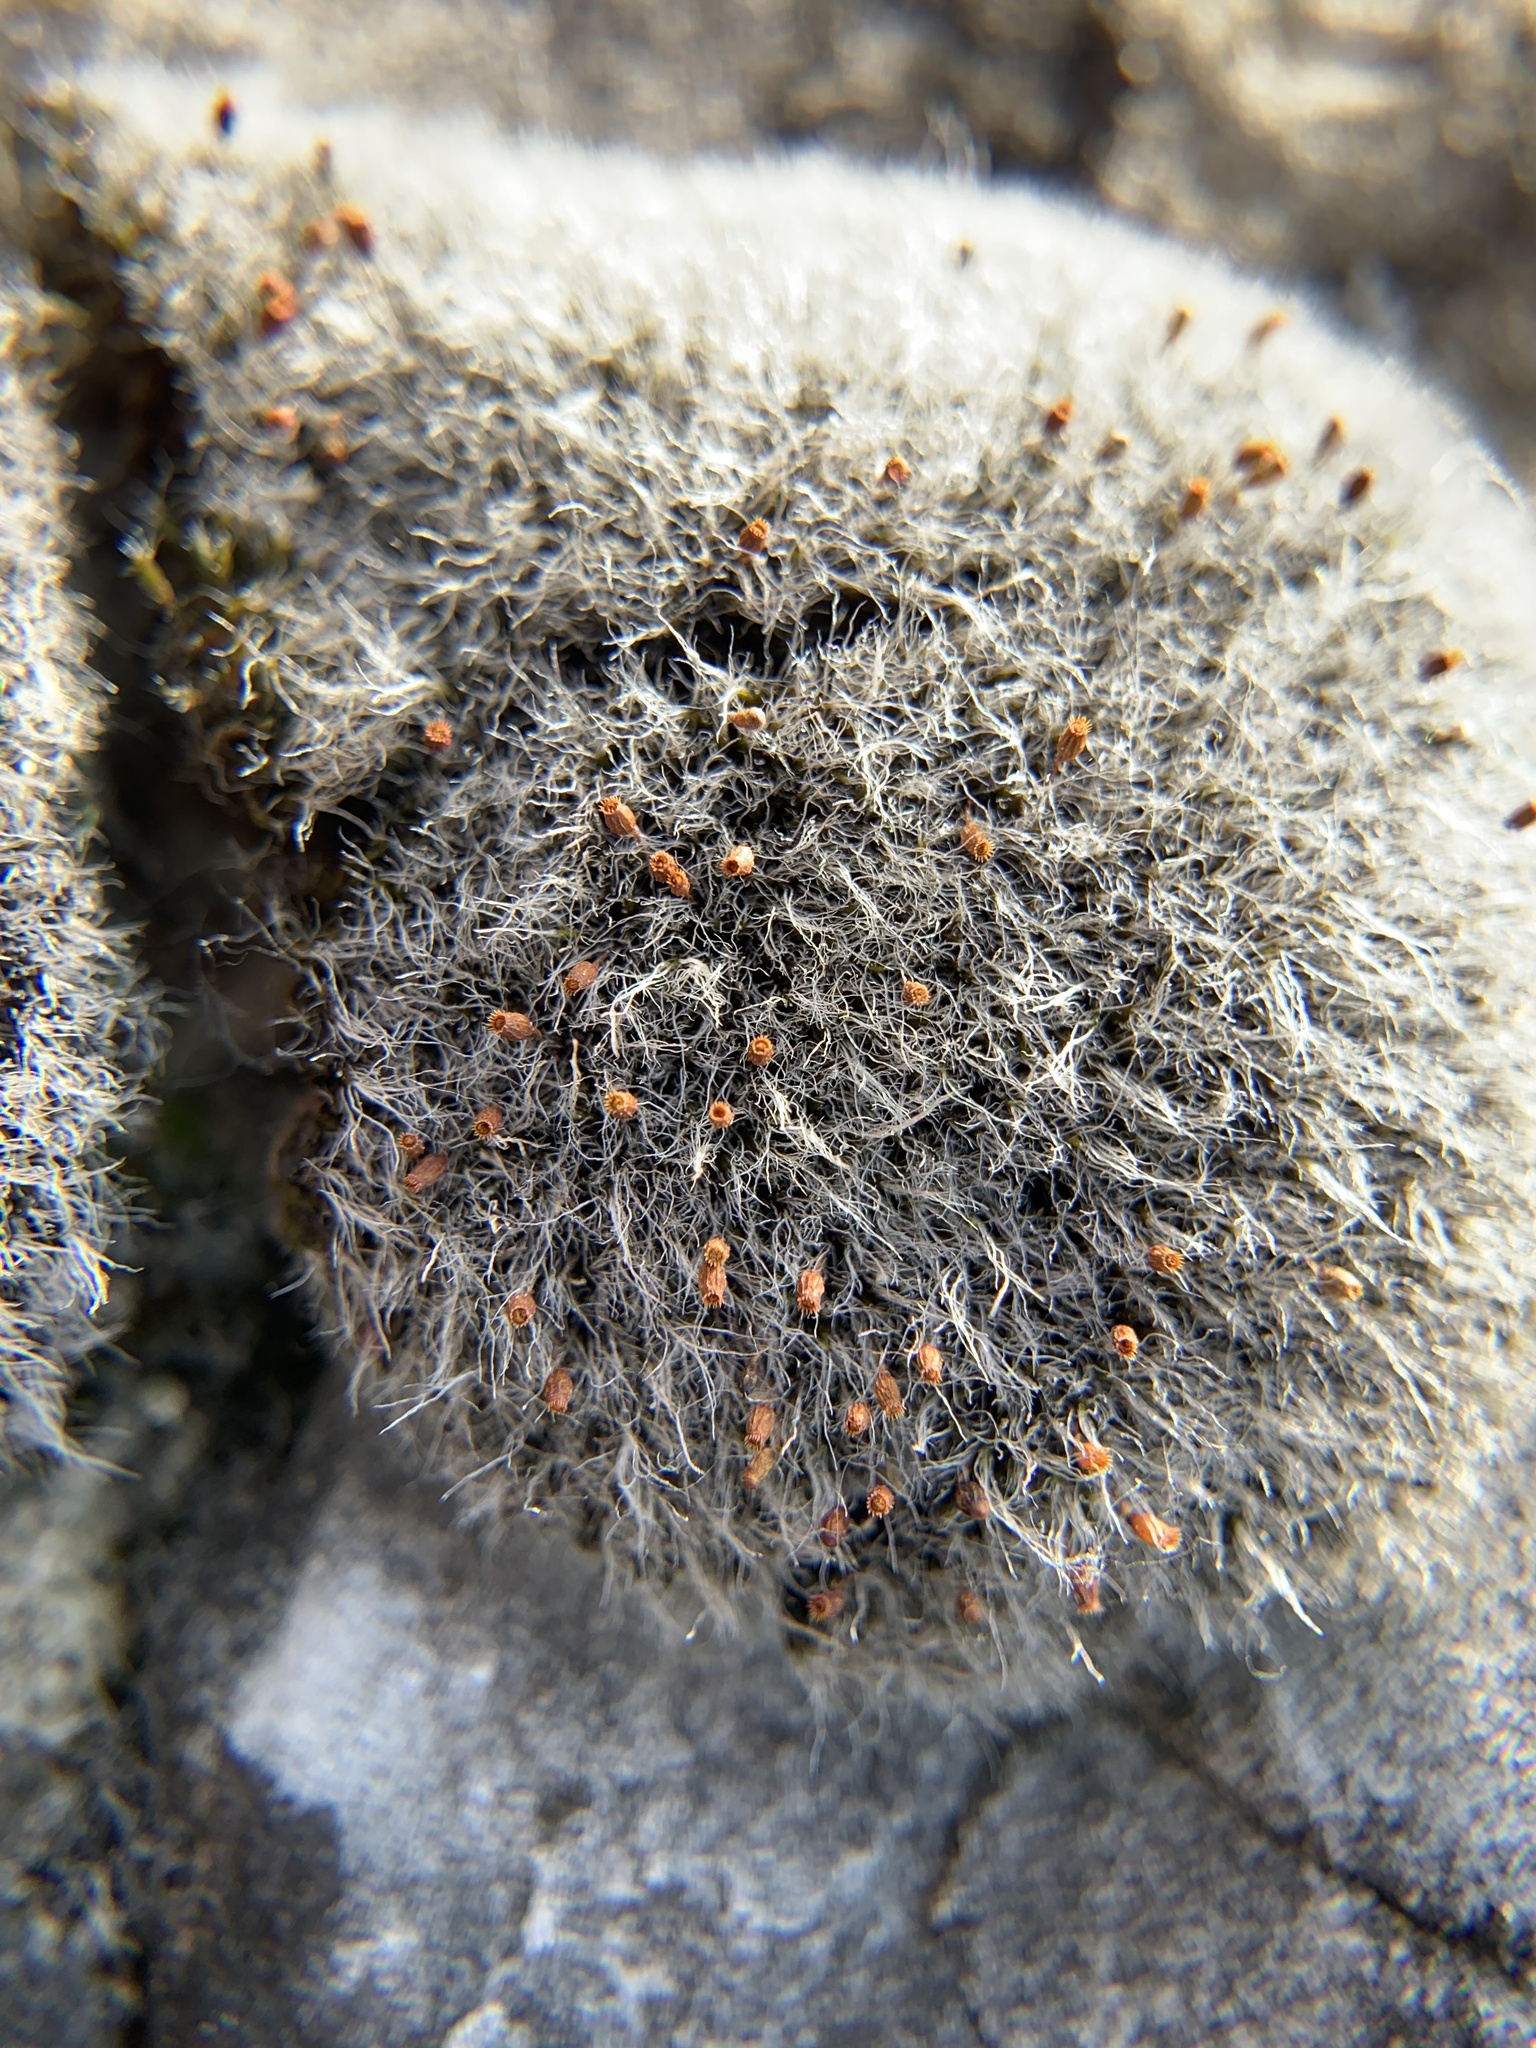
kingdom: Plantae
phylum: Bryophyta
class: Bryopsida
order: Grimmiales
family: Grimmiaceae
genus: Grimmia
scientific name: Grimmia pulvinata
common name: Grey-cushioned grimmia
